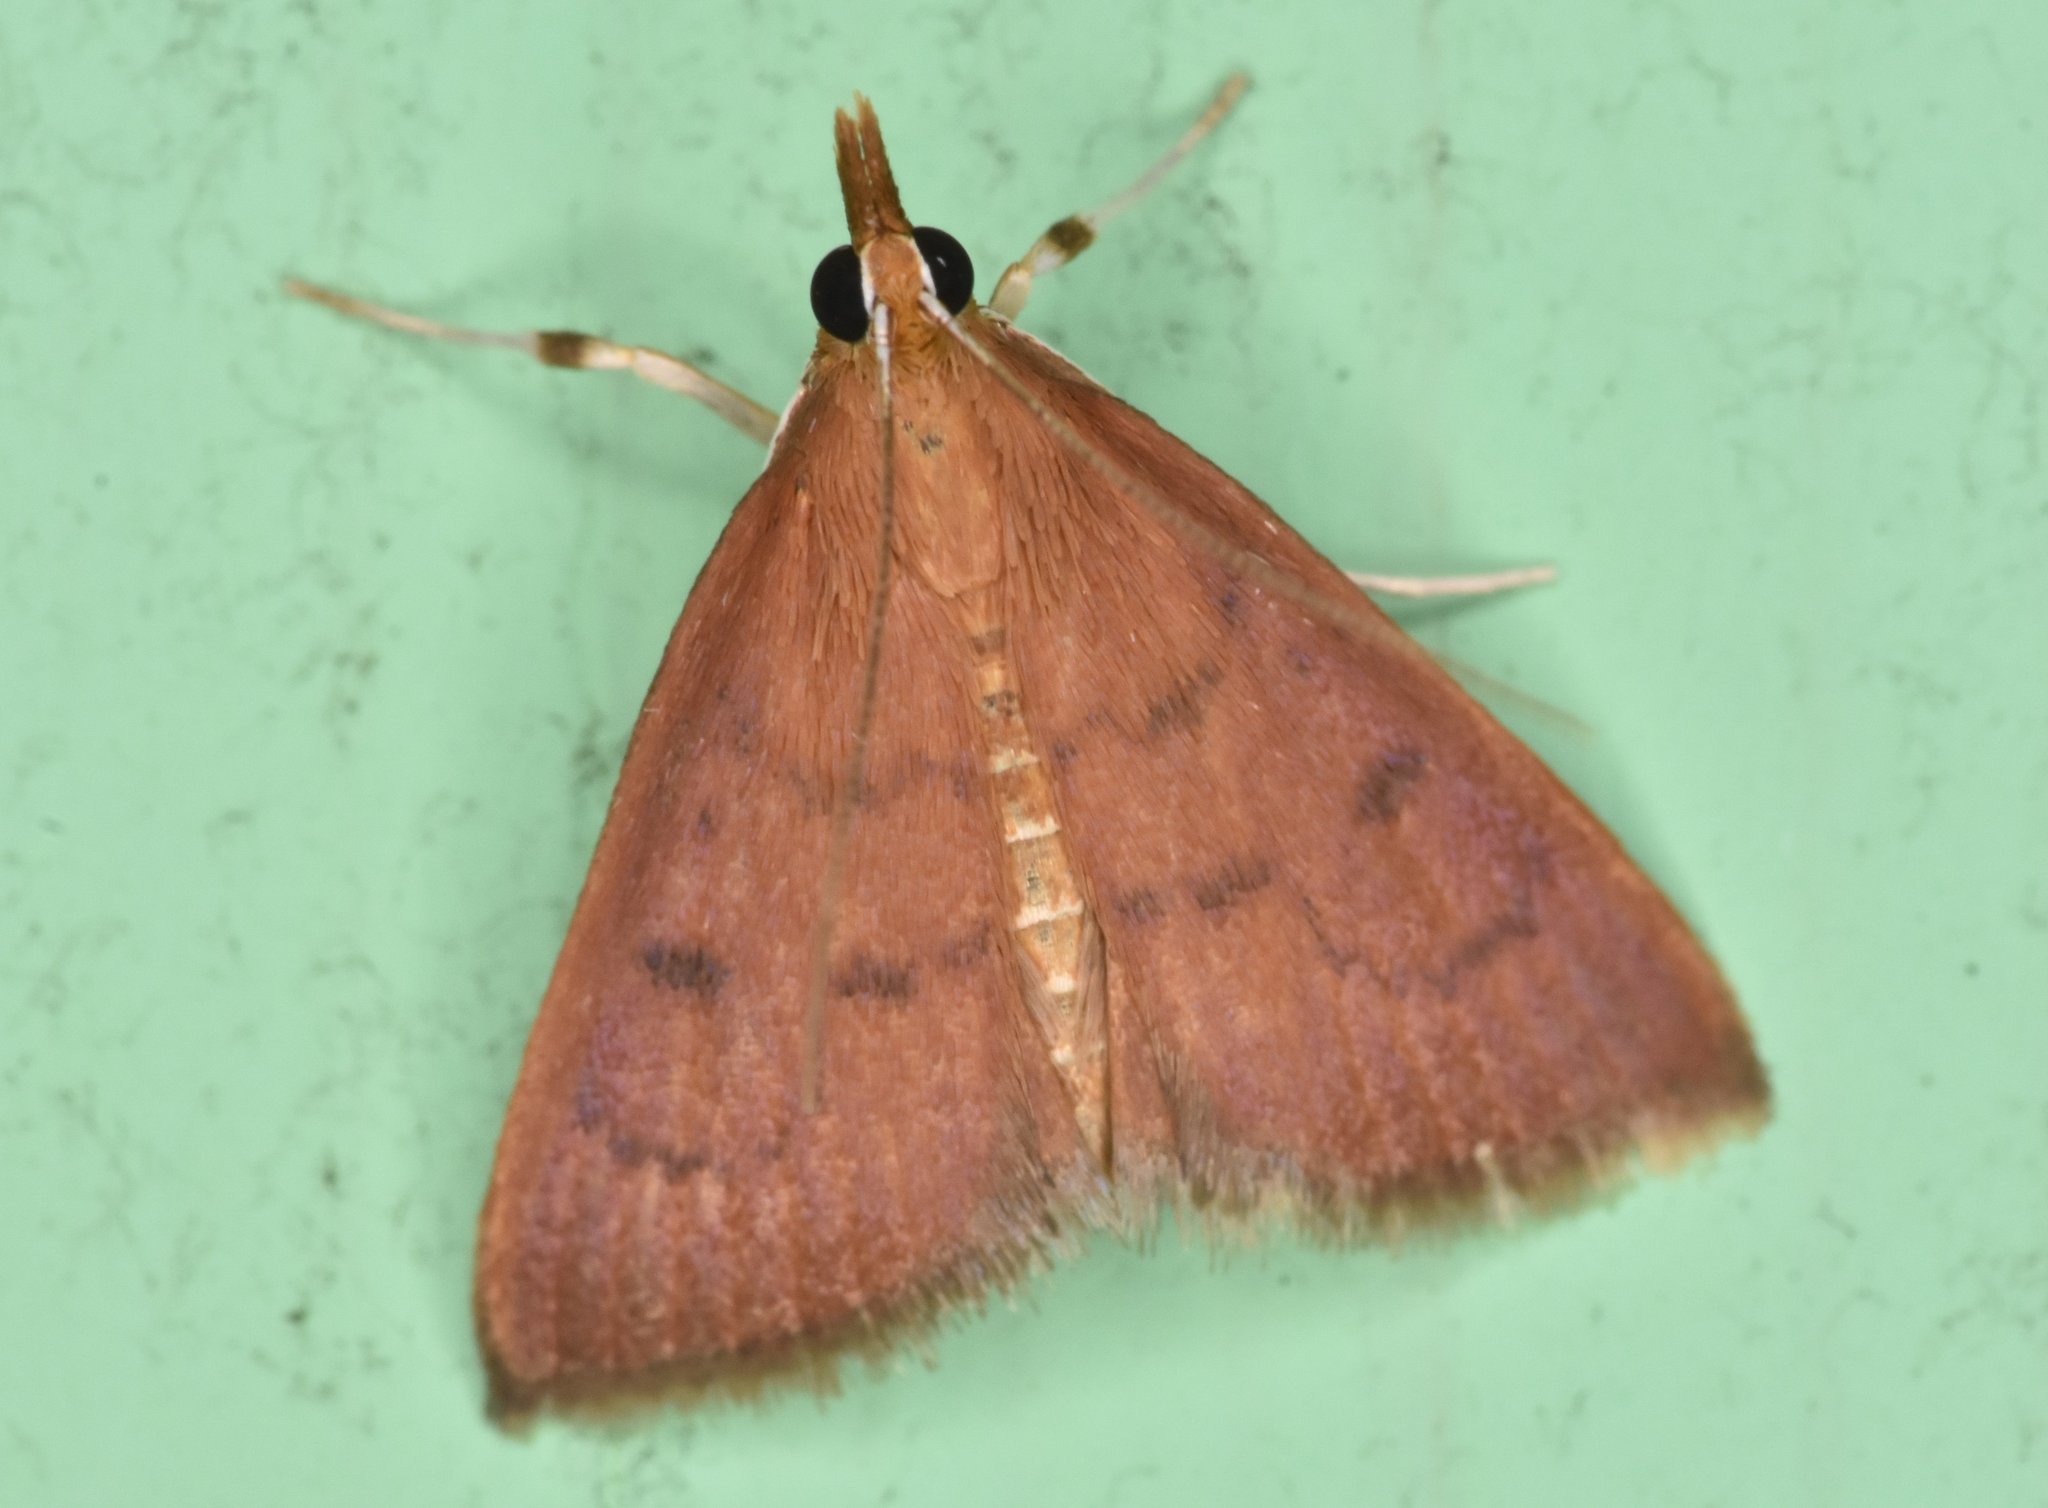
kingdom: Animalia
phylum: Arthropoda
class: Insecta
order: Lepidoptera
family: Crambidae
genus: Oenobotys
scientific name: Oenobotys vinotinctalis
